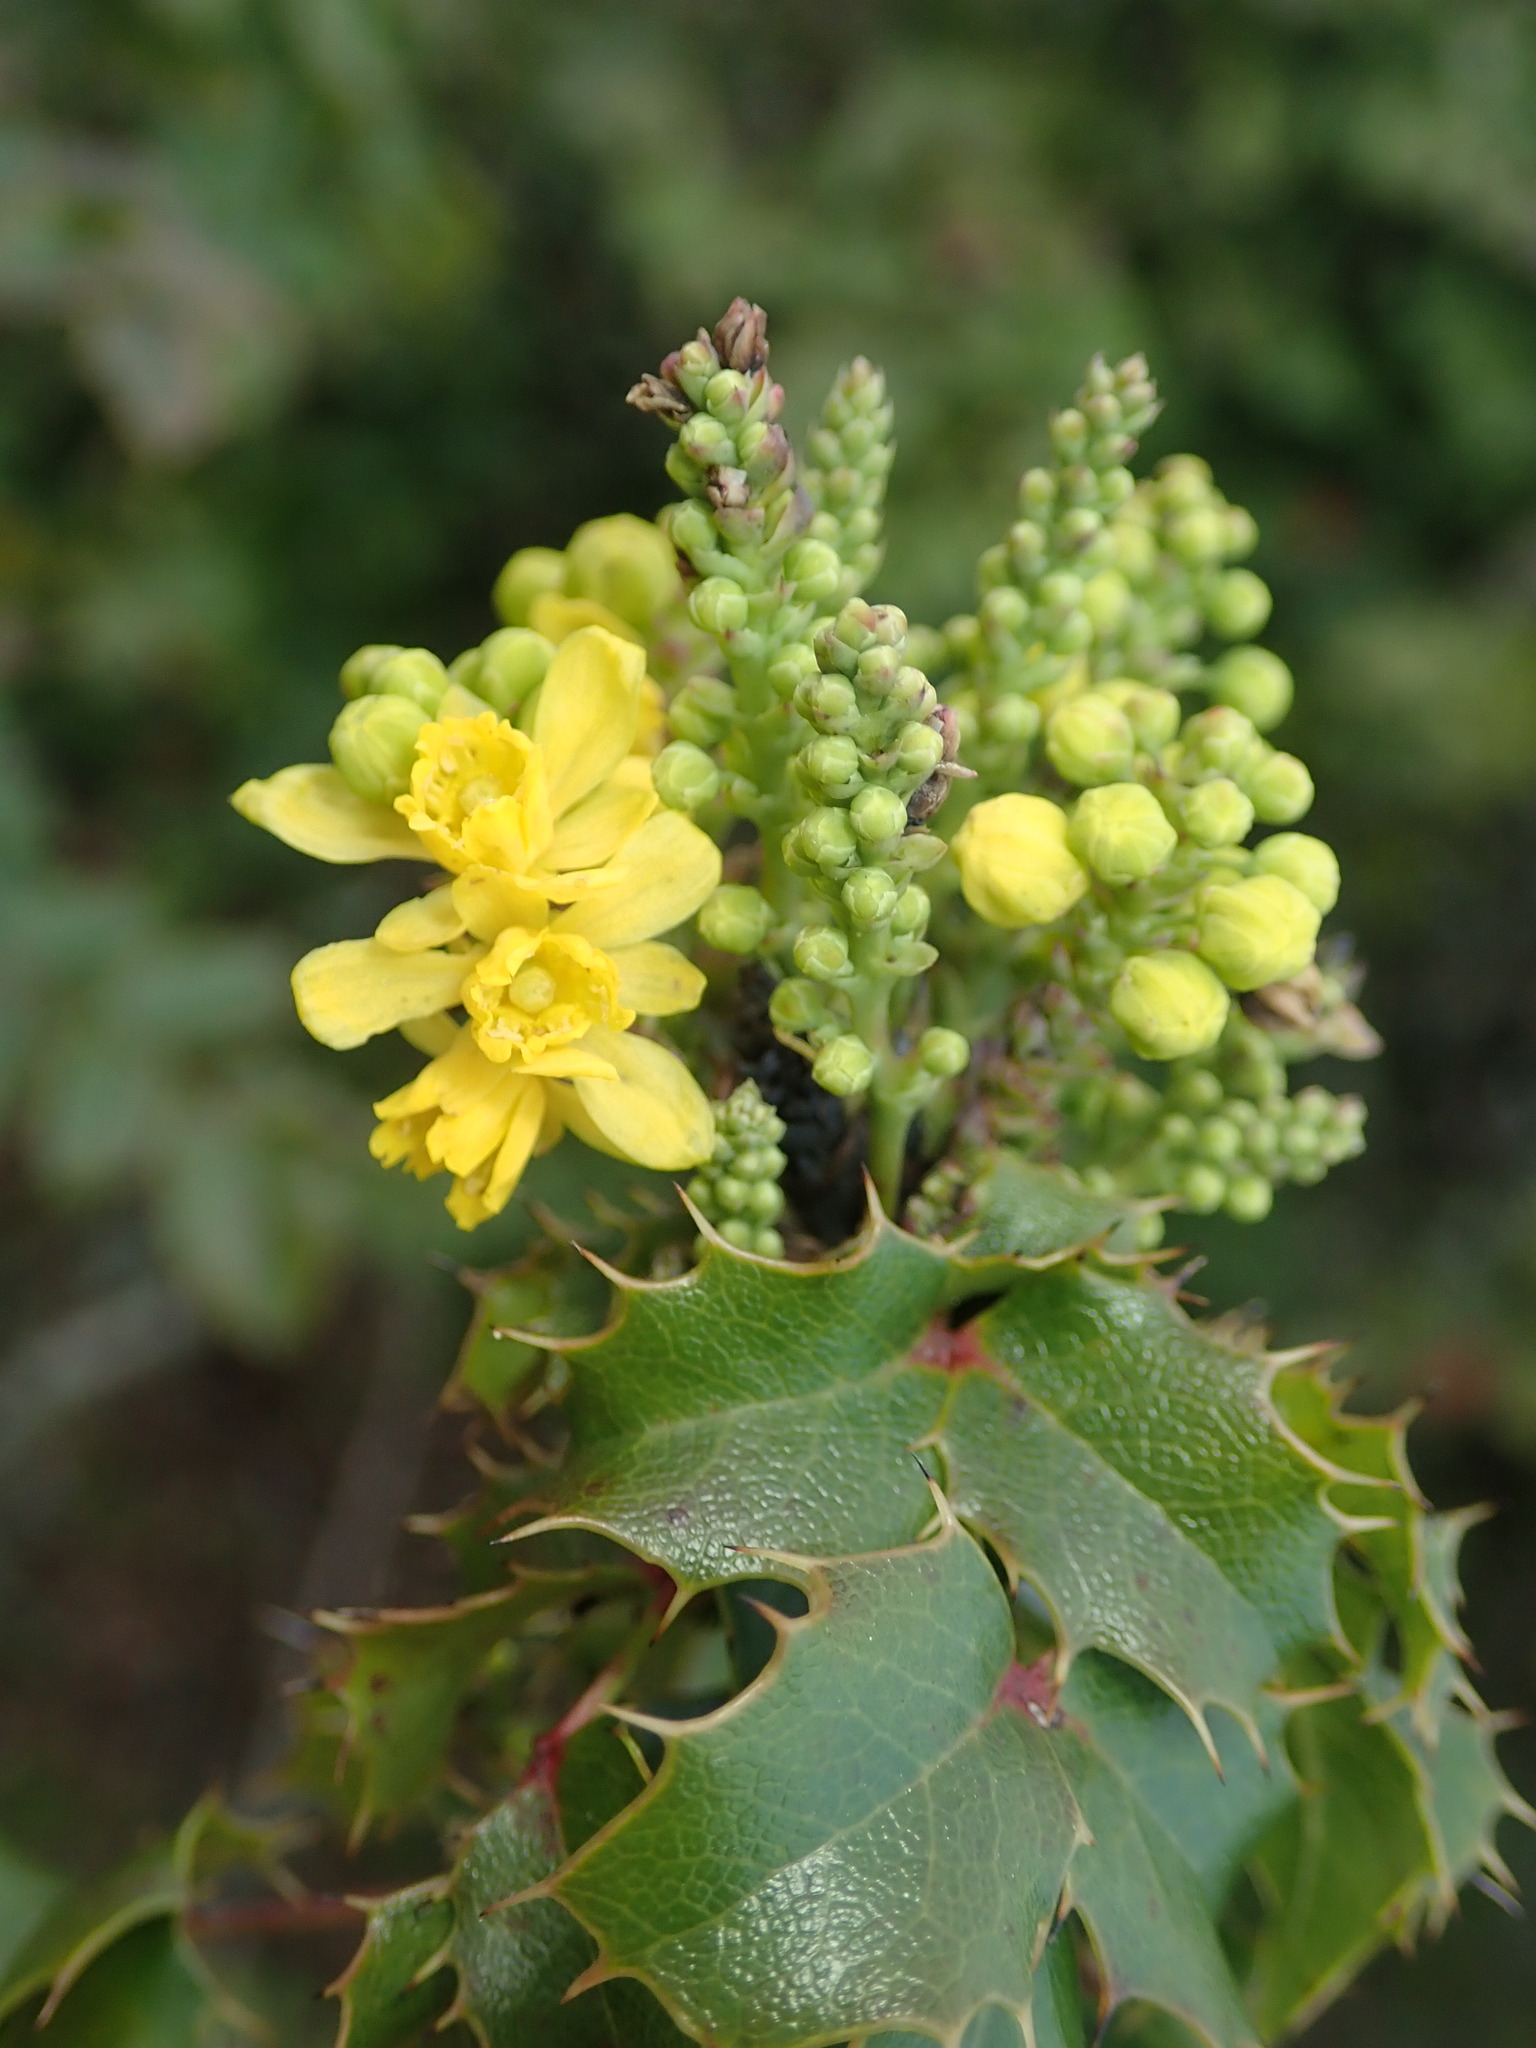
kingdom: Plantae
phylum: Tracheophyta
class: Magnoliopsida
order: Ranunculales
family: Berberidaceae
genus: Mahonia
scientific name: Mahonia
